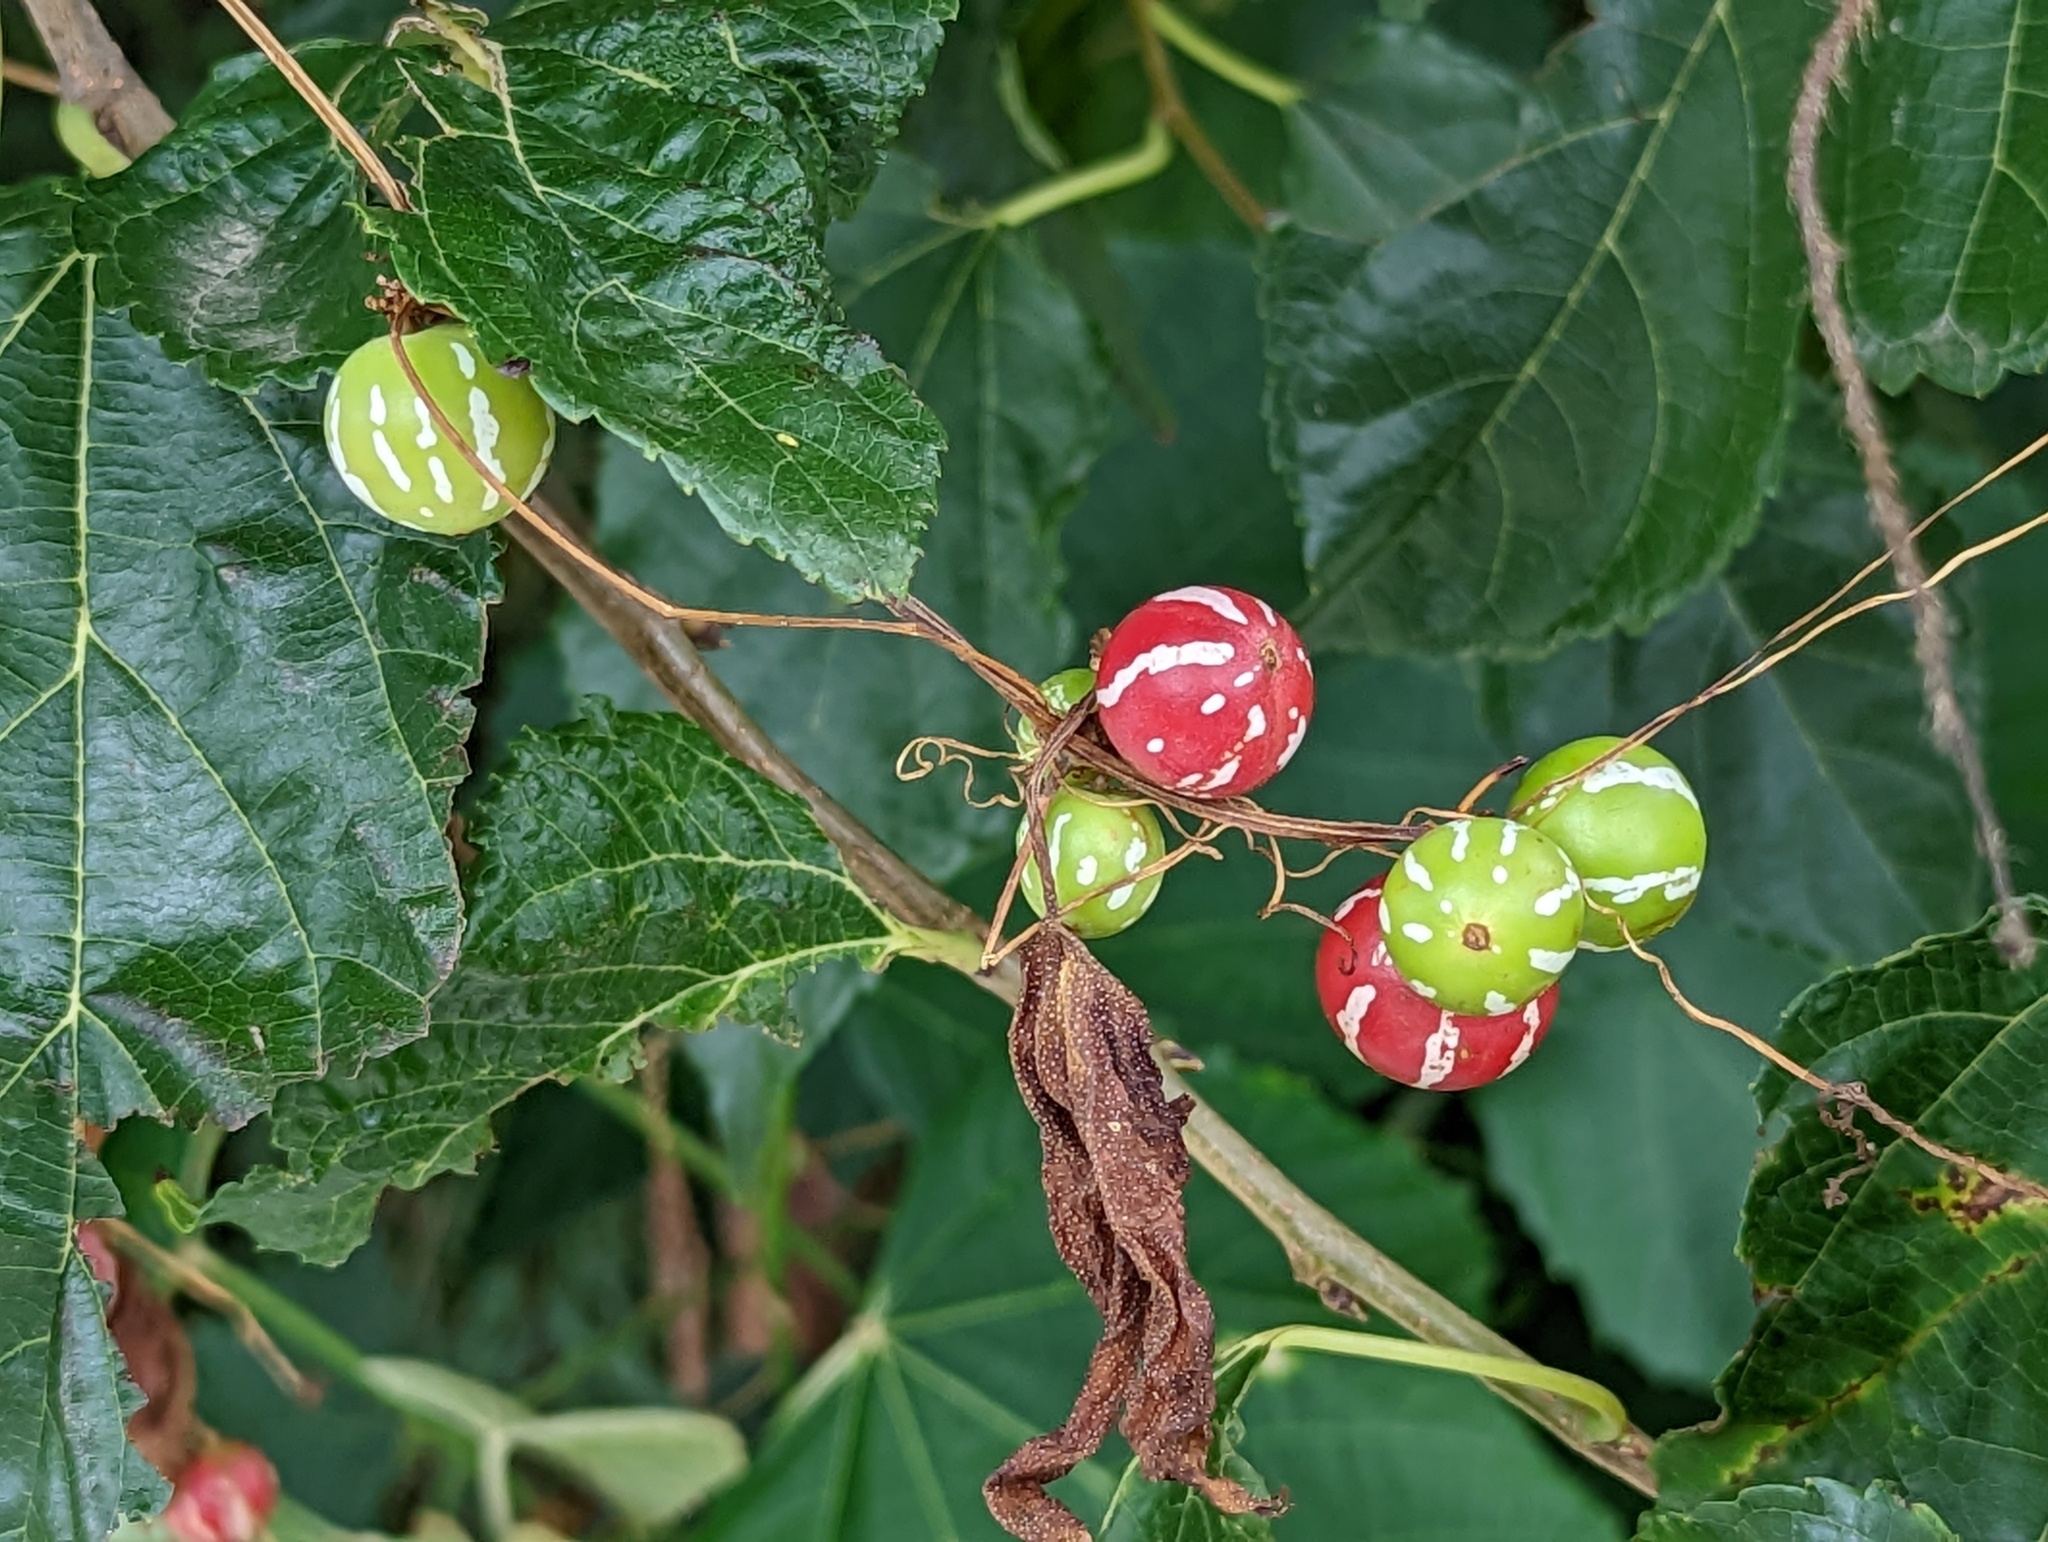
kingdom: Plantae
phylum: Tracheophyta
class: Magnoliopsida
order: Cucurbitales
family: Cucurbitaceae
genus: Diplocyclos
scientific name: Diplocyclos palmatus
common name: Striped-cucumber
